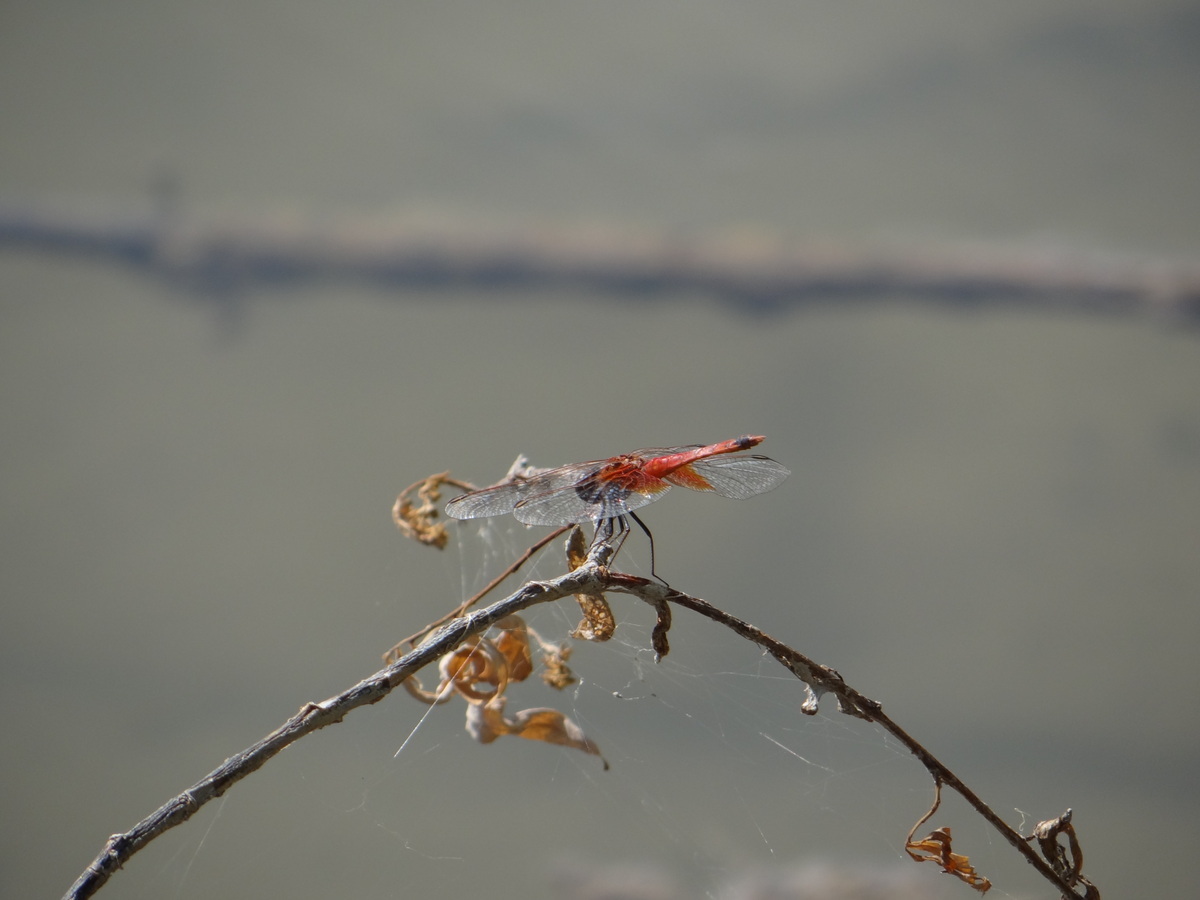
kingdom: Animalia
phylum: Arthropoda
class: Insecta
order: Odonata
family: Libellulidae
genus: Erythrodiplax
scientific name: Erythrodiplax corallina
